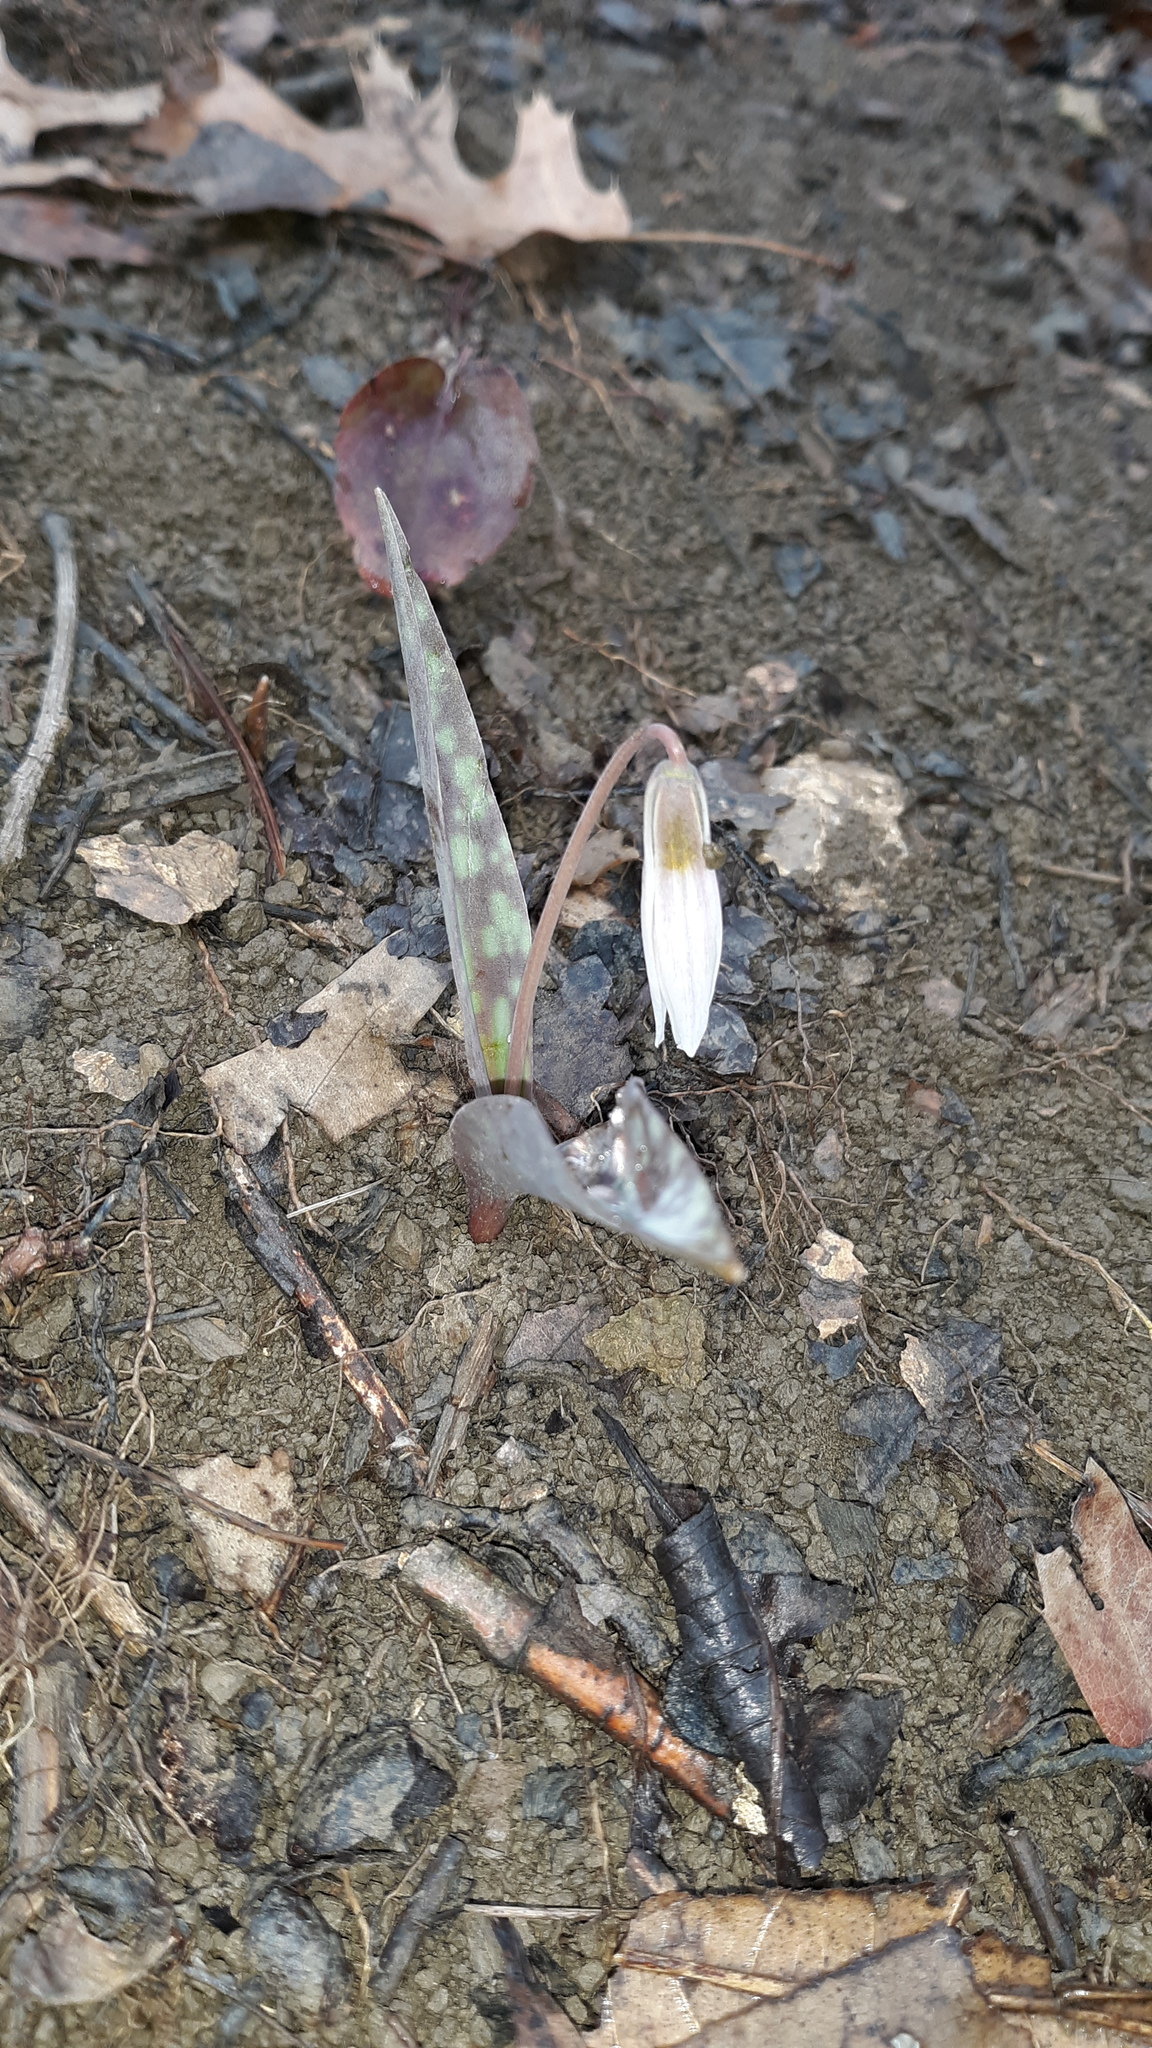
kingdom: Plantae
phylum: Tracheophyta
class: Liliopsida
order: Liliales
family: Liliaceae
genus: Erythronium
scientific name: Erythronium albidum
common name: White trout-lily
